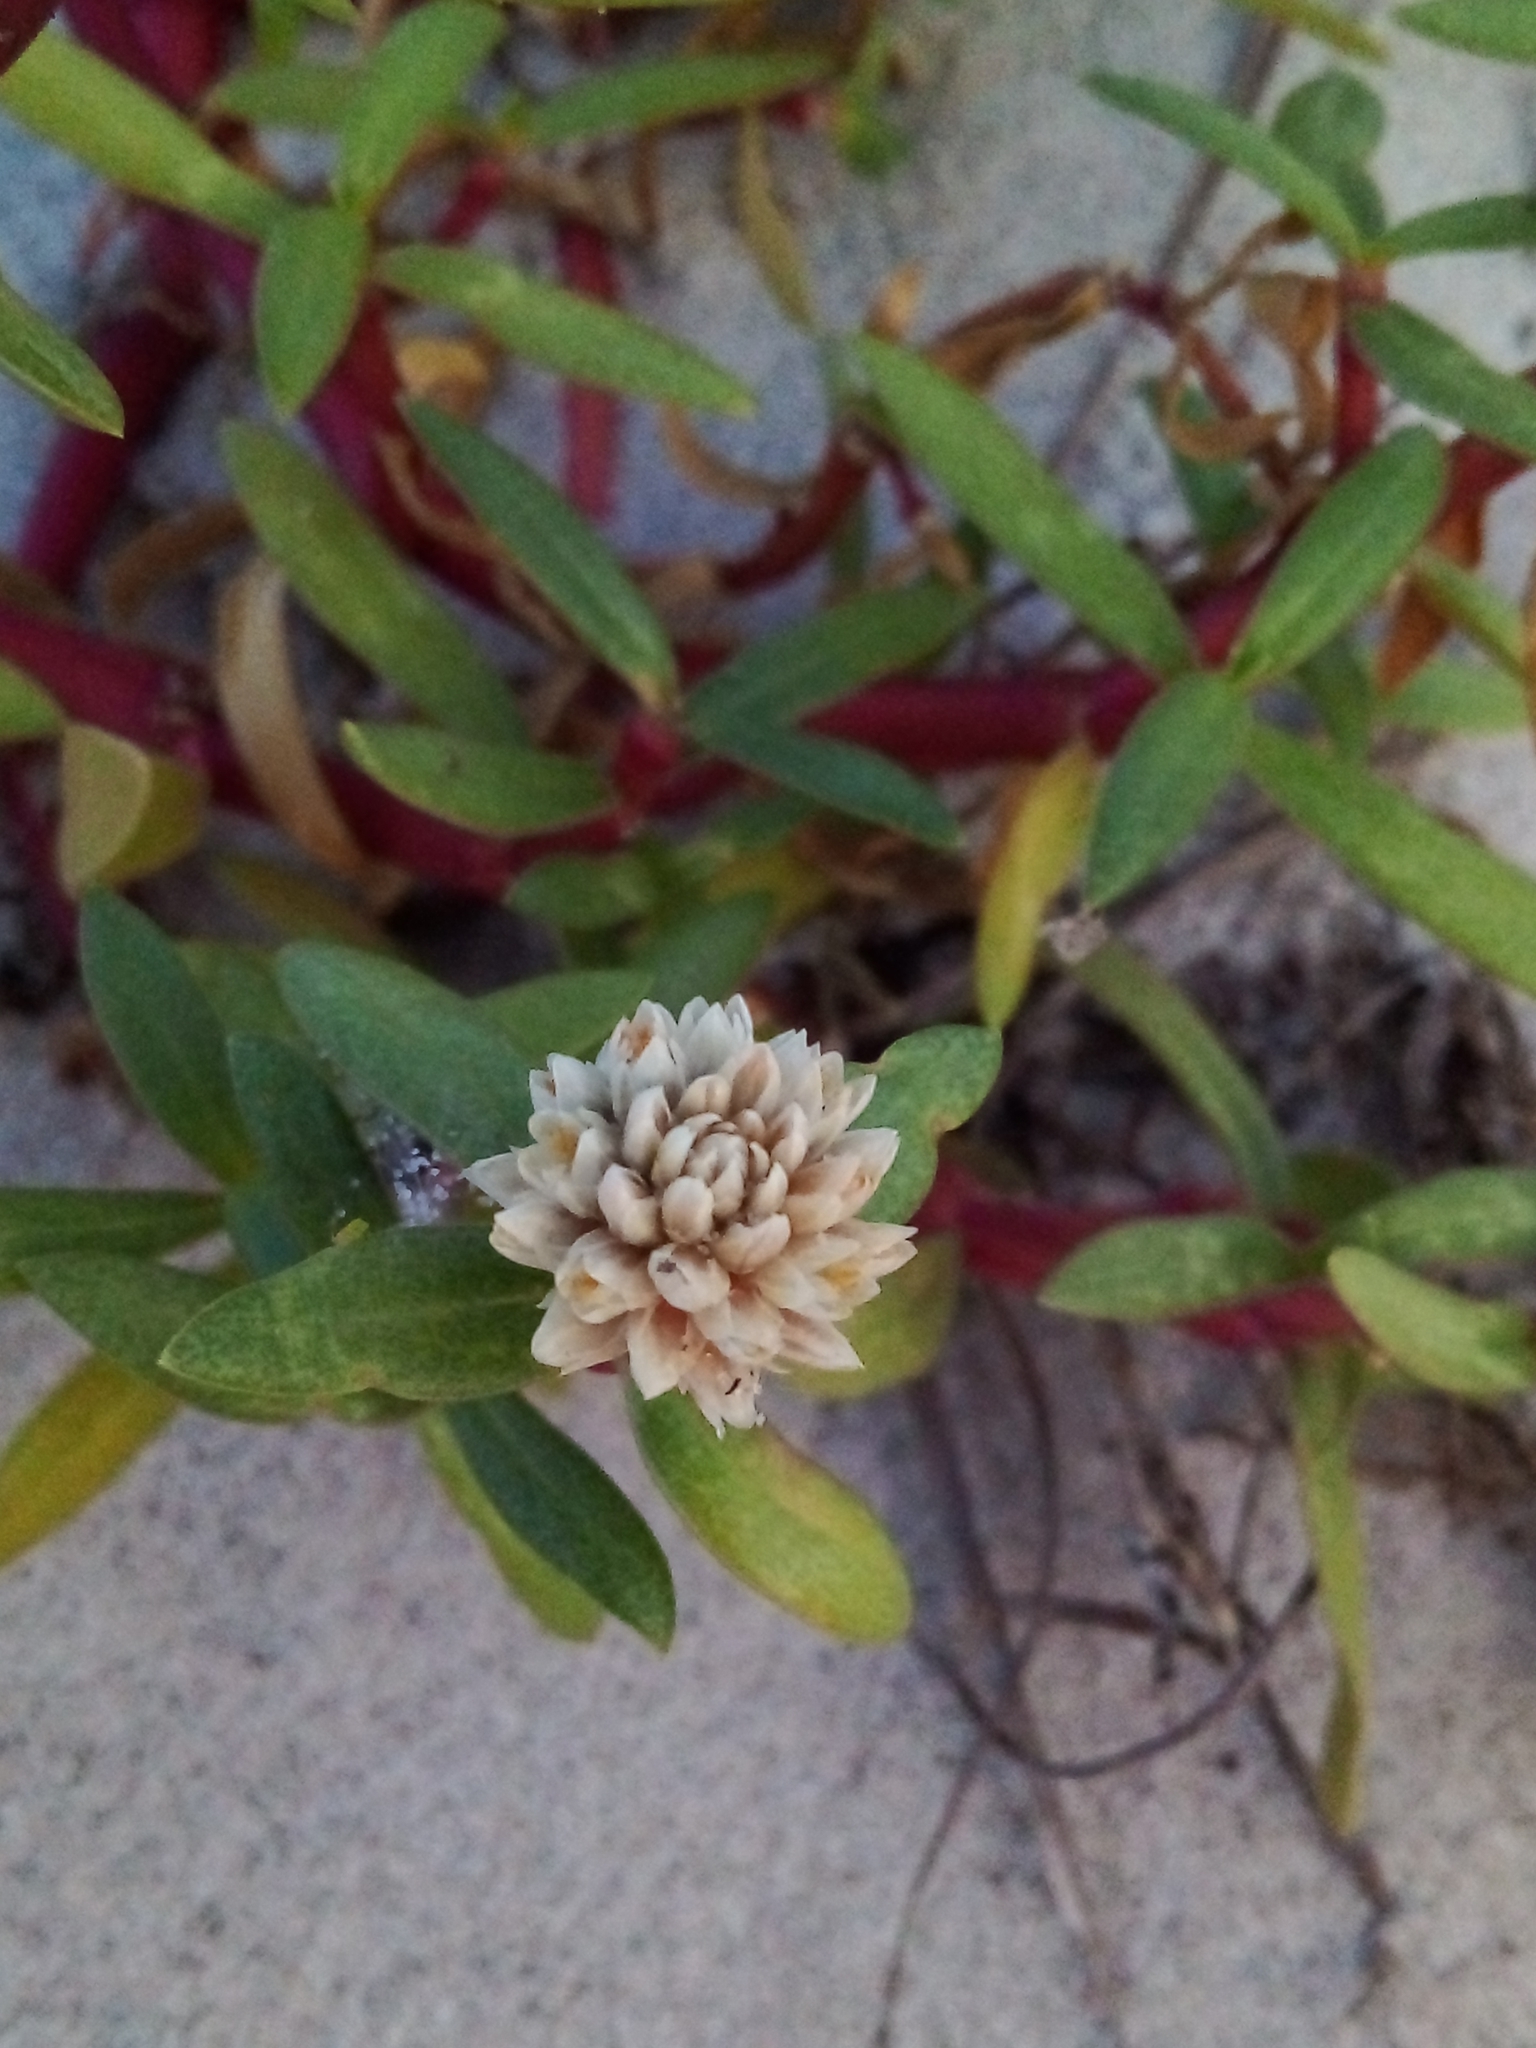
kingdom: Plantae
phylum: Tracheophyta
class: Magnoliopsida
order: Caryophyllales
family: Amaranthaceae
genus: Gomphrena
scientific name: Gomphrena portulacoides
